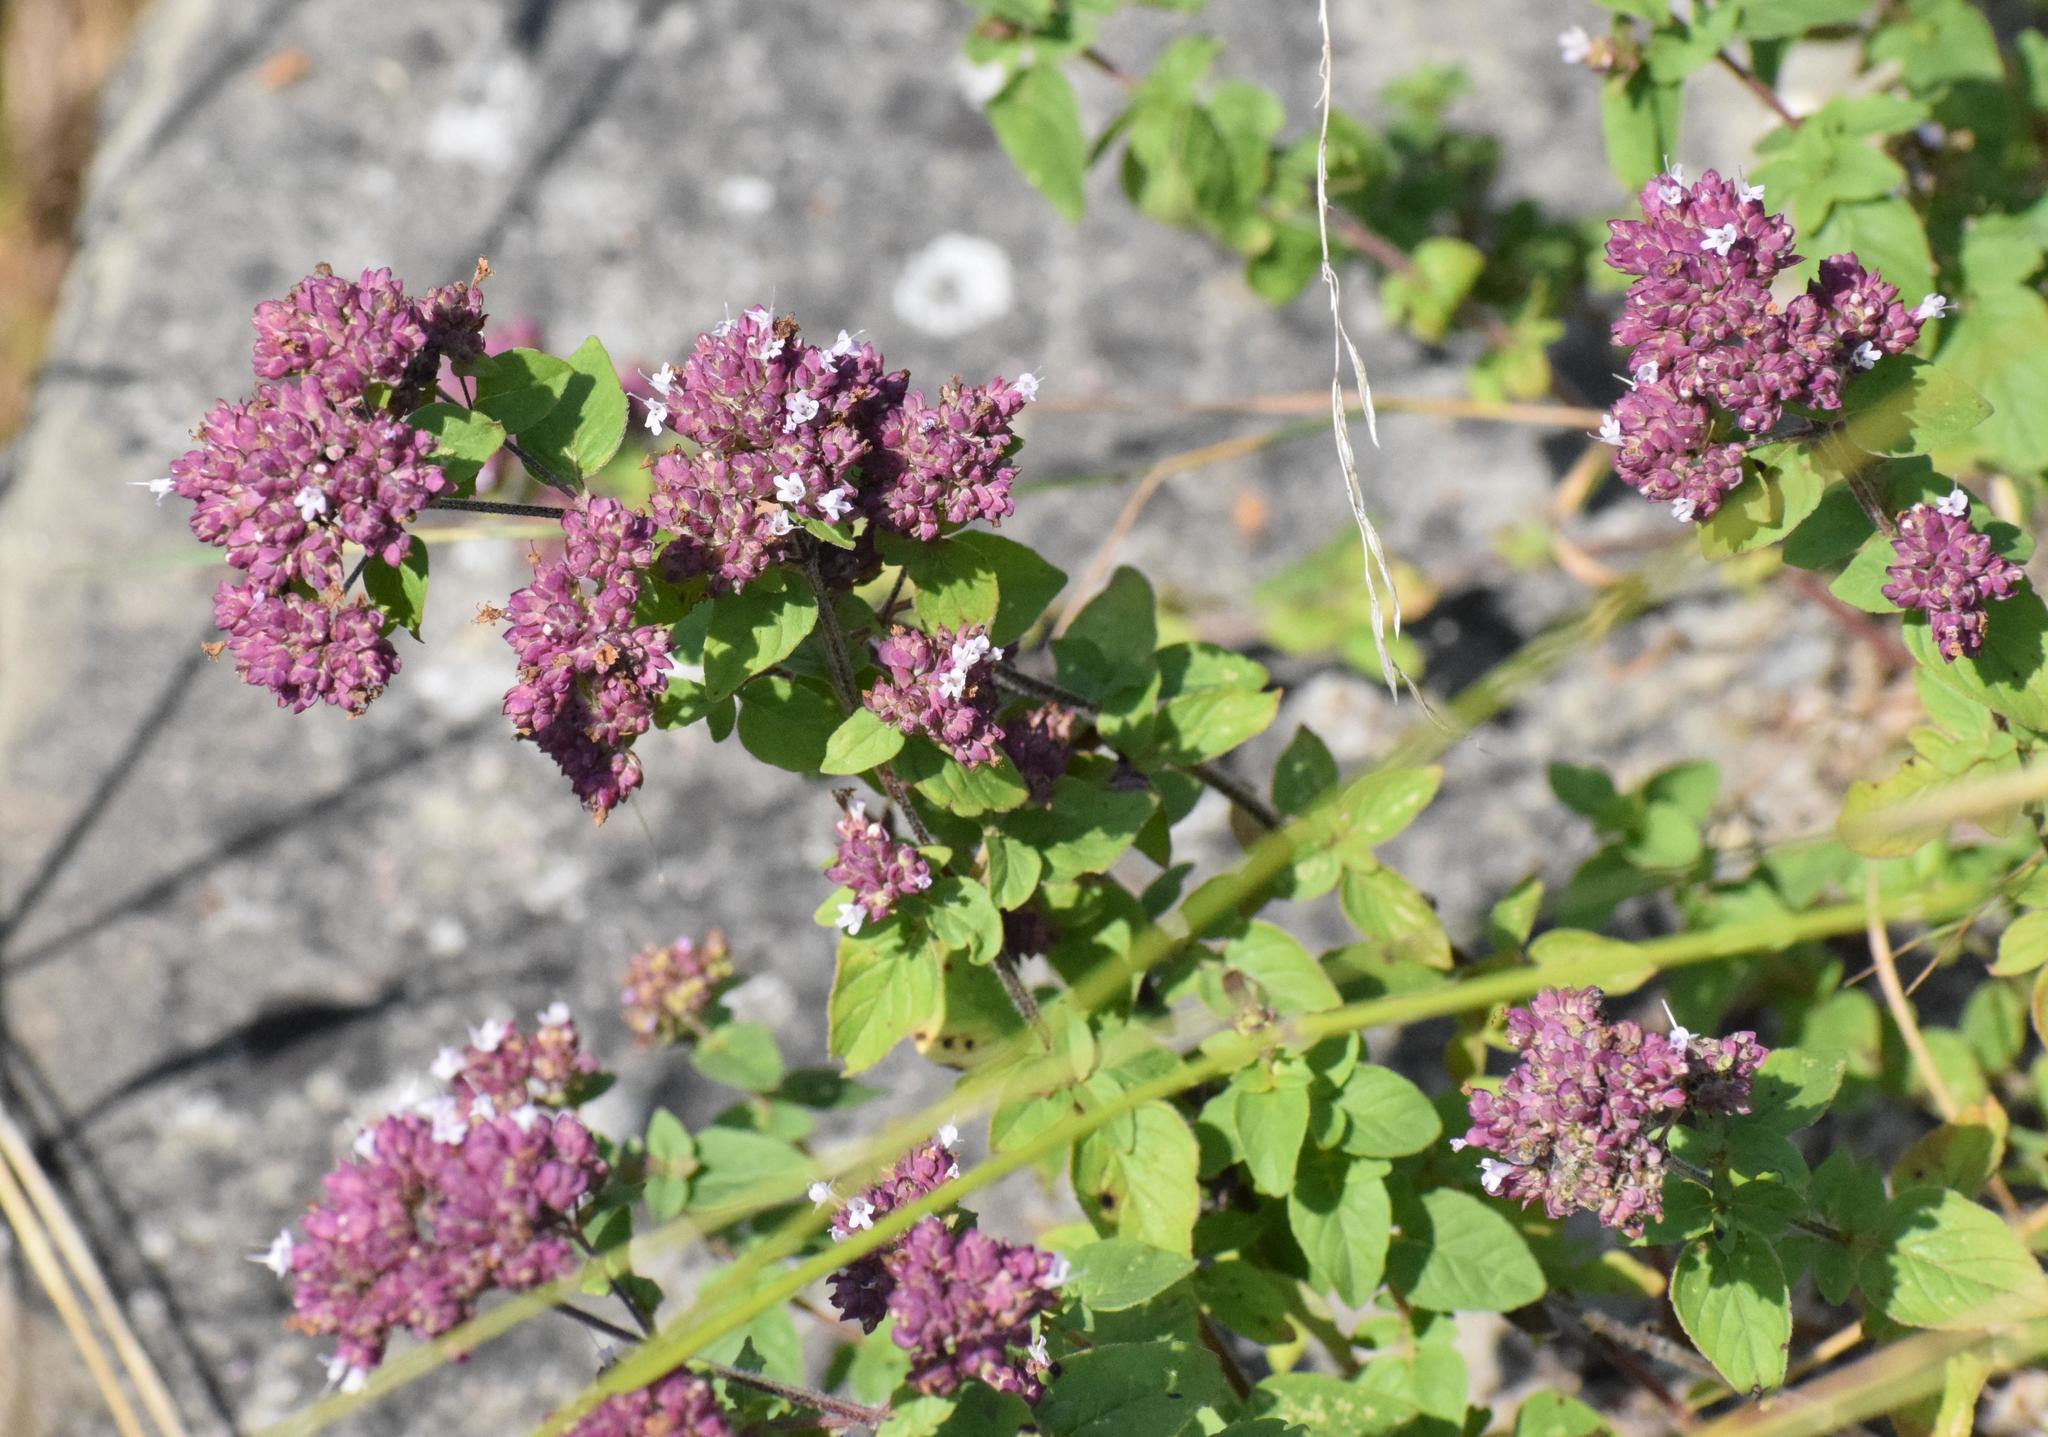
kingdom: Plantae
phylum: Tracheophyta
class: Magnoliopsida
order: Lamiales
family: Lamiaceae
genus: Origanum
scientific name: Origanum vulgare
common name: Wild marjoram
